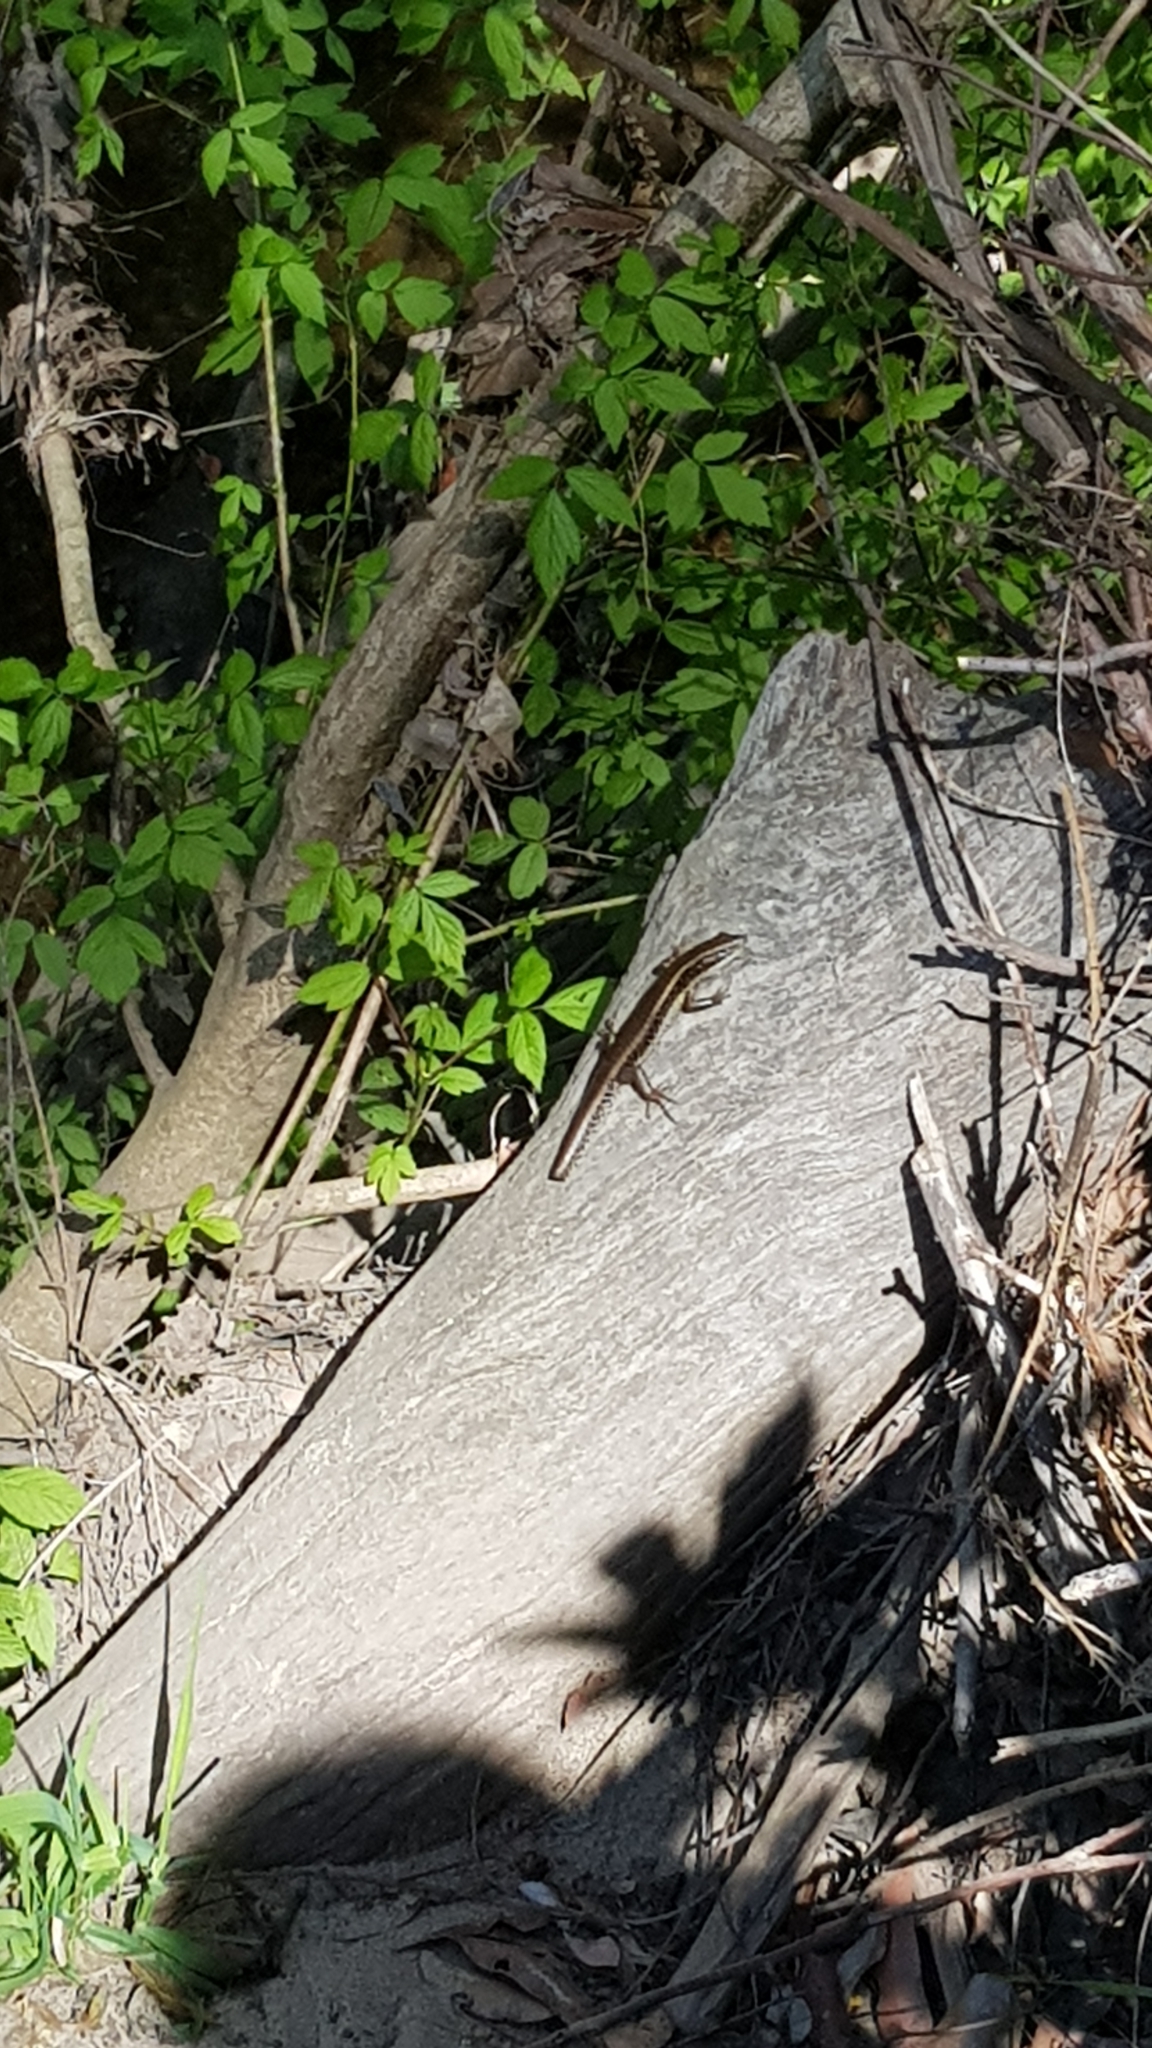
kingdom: Animalia
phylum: Chordata
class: Squamata
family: Scincidae
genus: Eulamprus
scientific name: Eulamprus quoyii
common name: Eastern water skink
